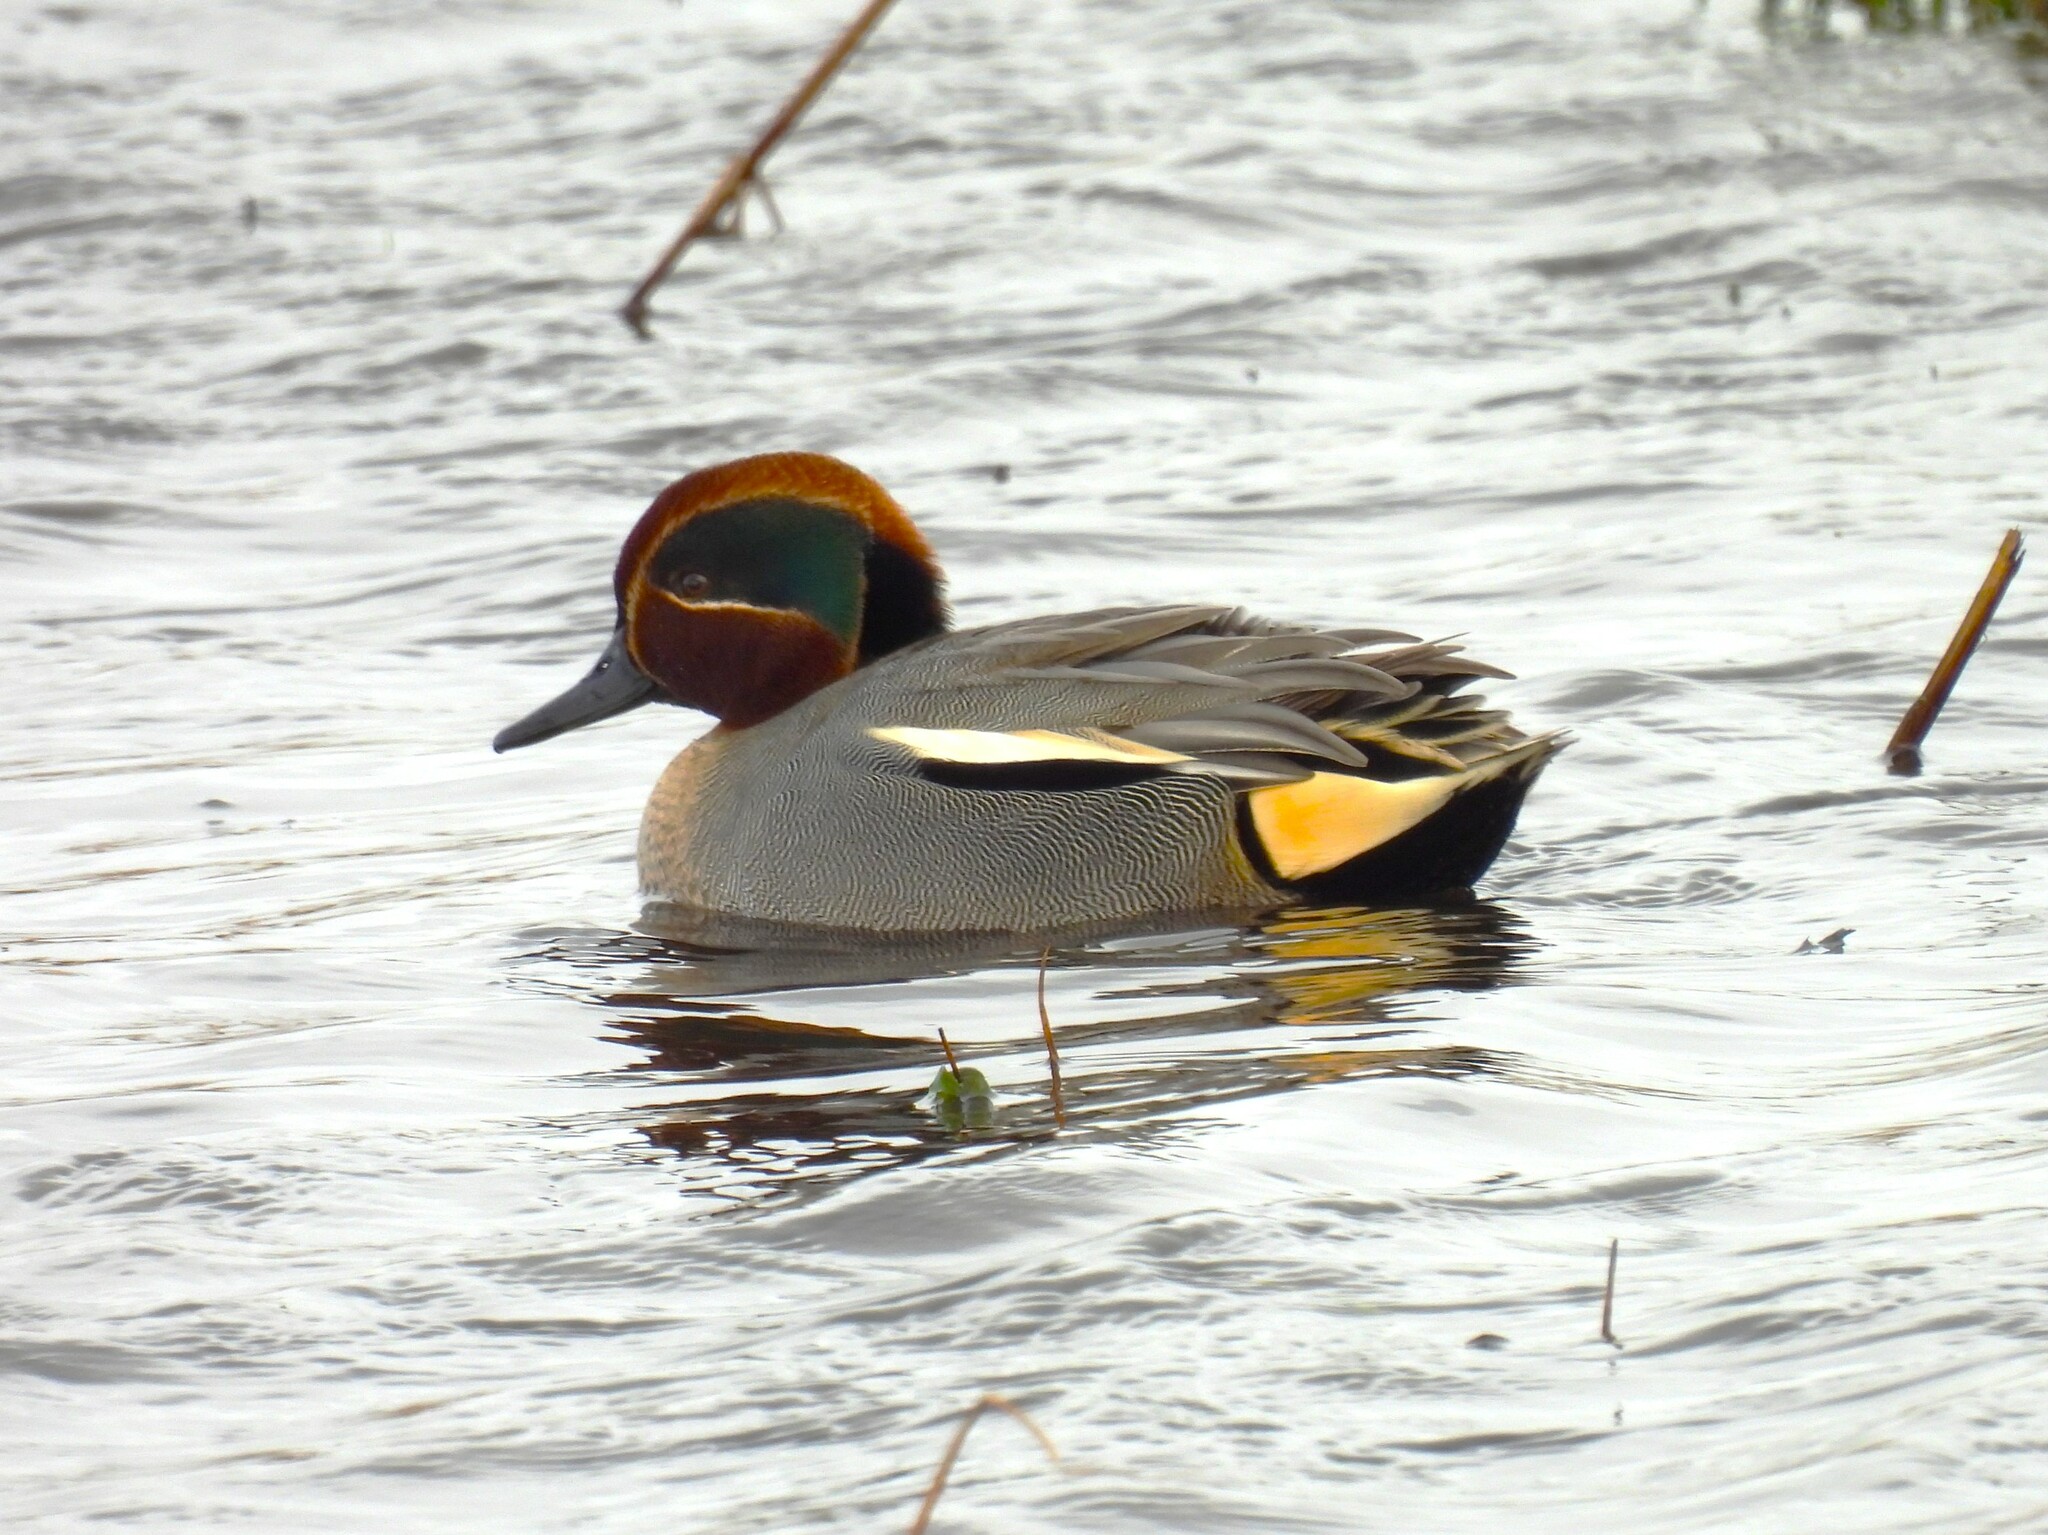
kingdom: Animalia
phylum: Chordata
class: Aves
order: Anseriformes
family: Anatidae
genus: Anas
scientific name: Anas crecca
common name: Eurasian teal
